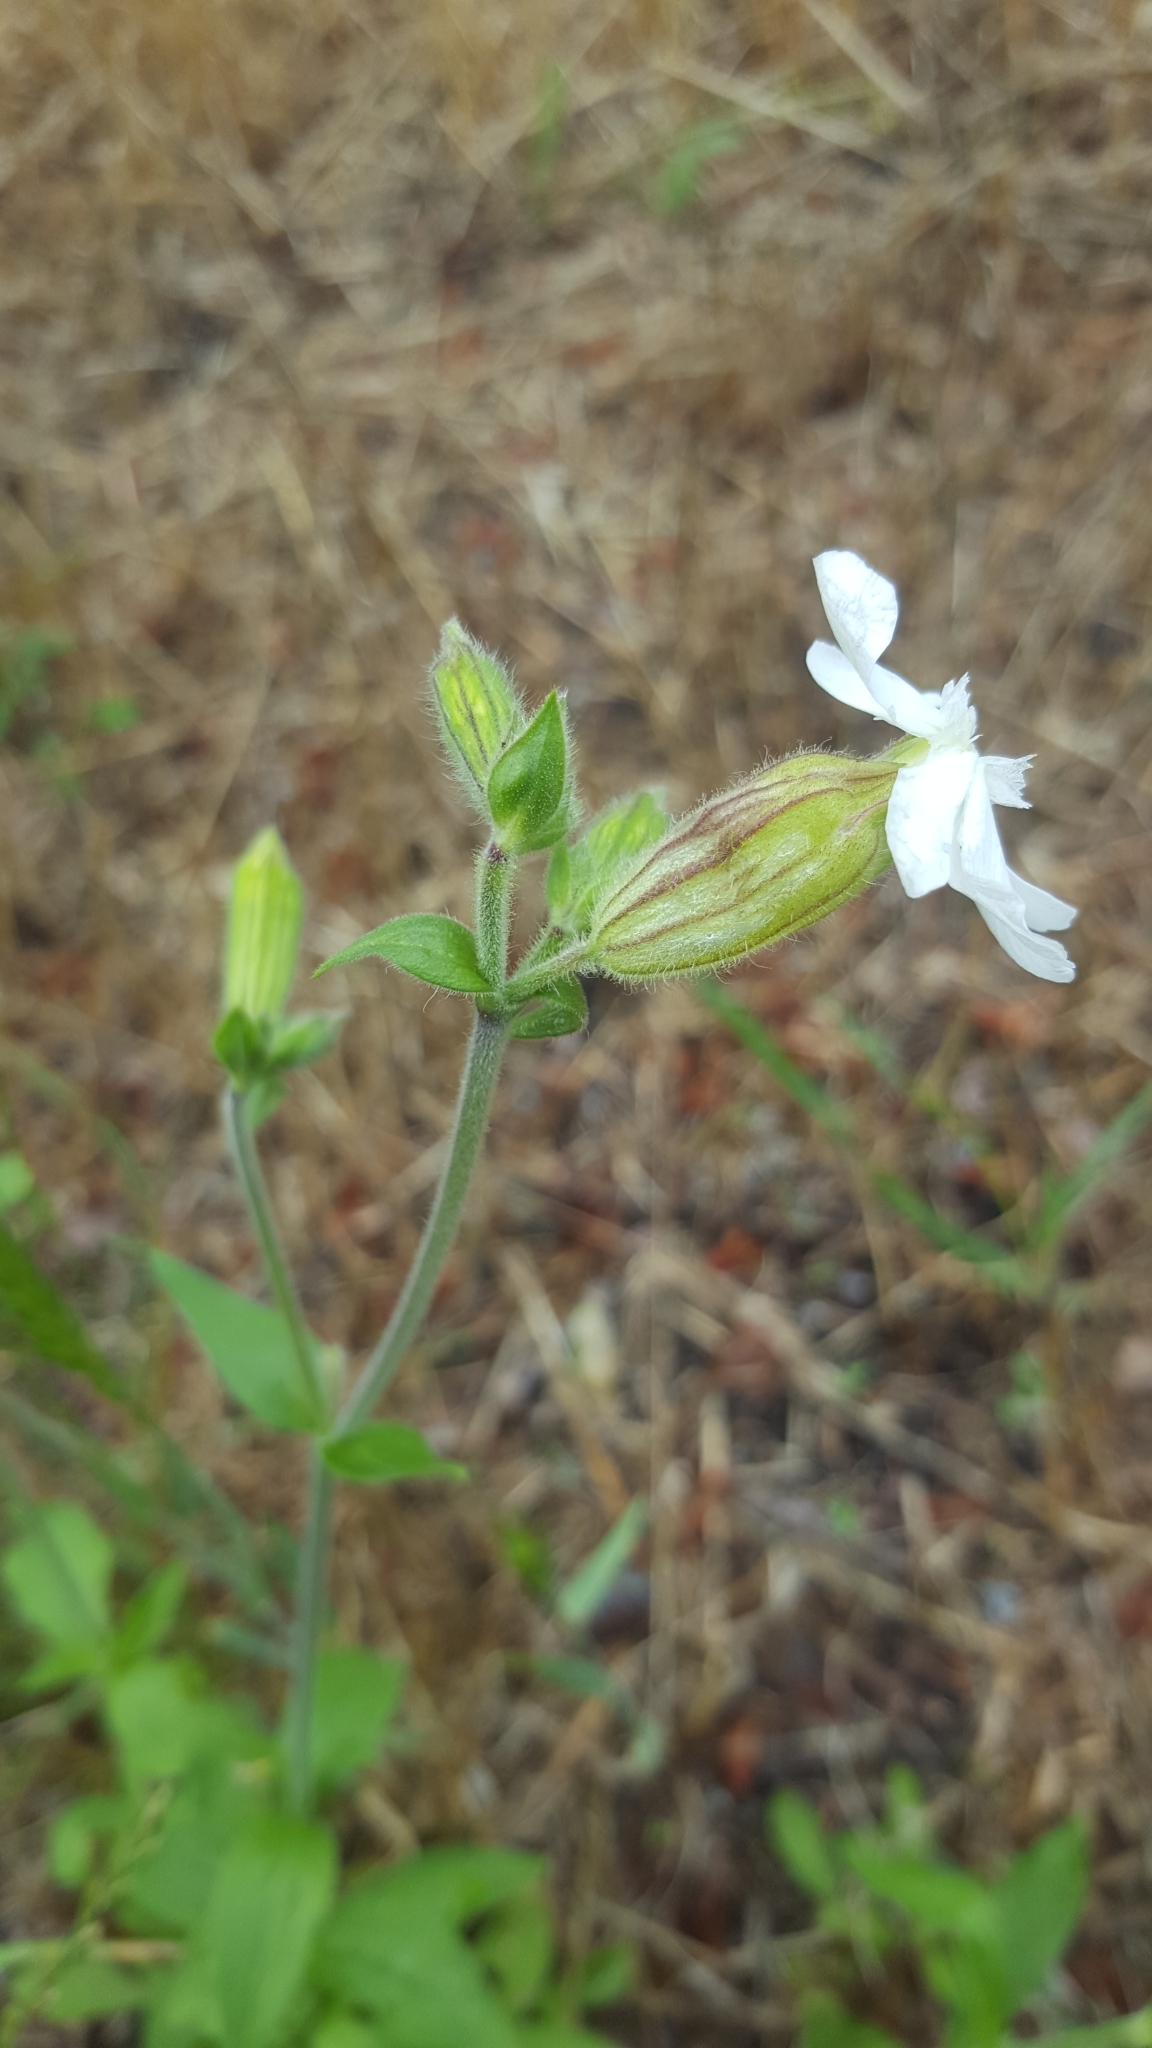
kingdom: Plantae
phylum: Tracheophyta
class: Magnoliopsida
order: Caryophyllales
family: Caryophyllaceae
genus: Silene
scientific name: Silene latifolia
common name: White campion
